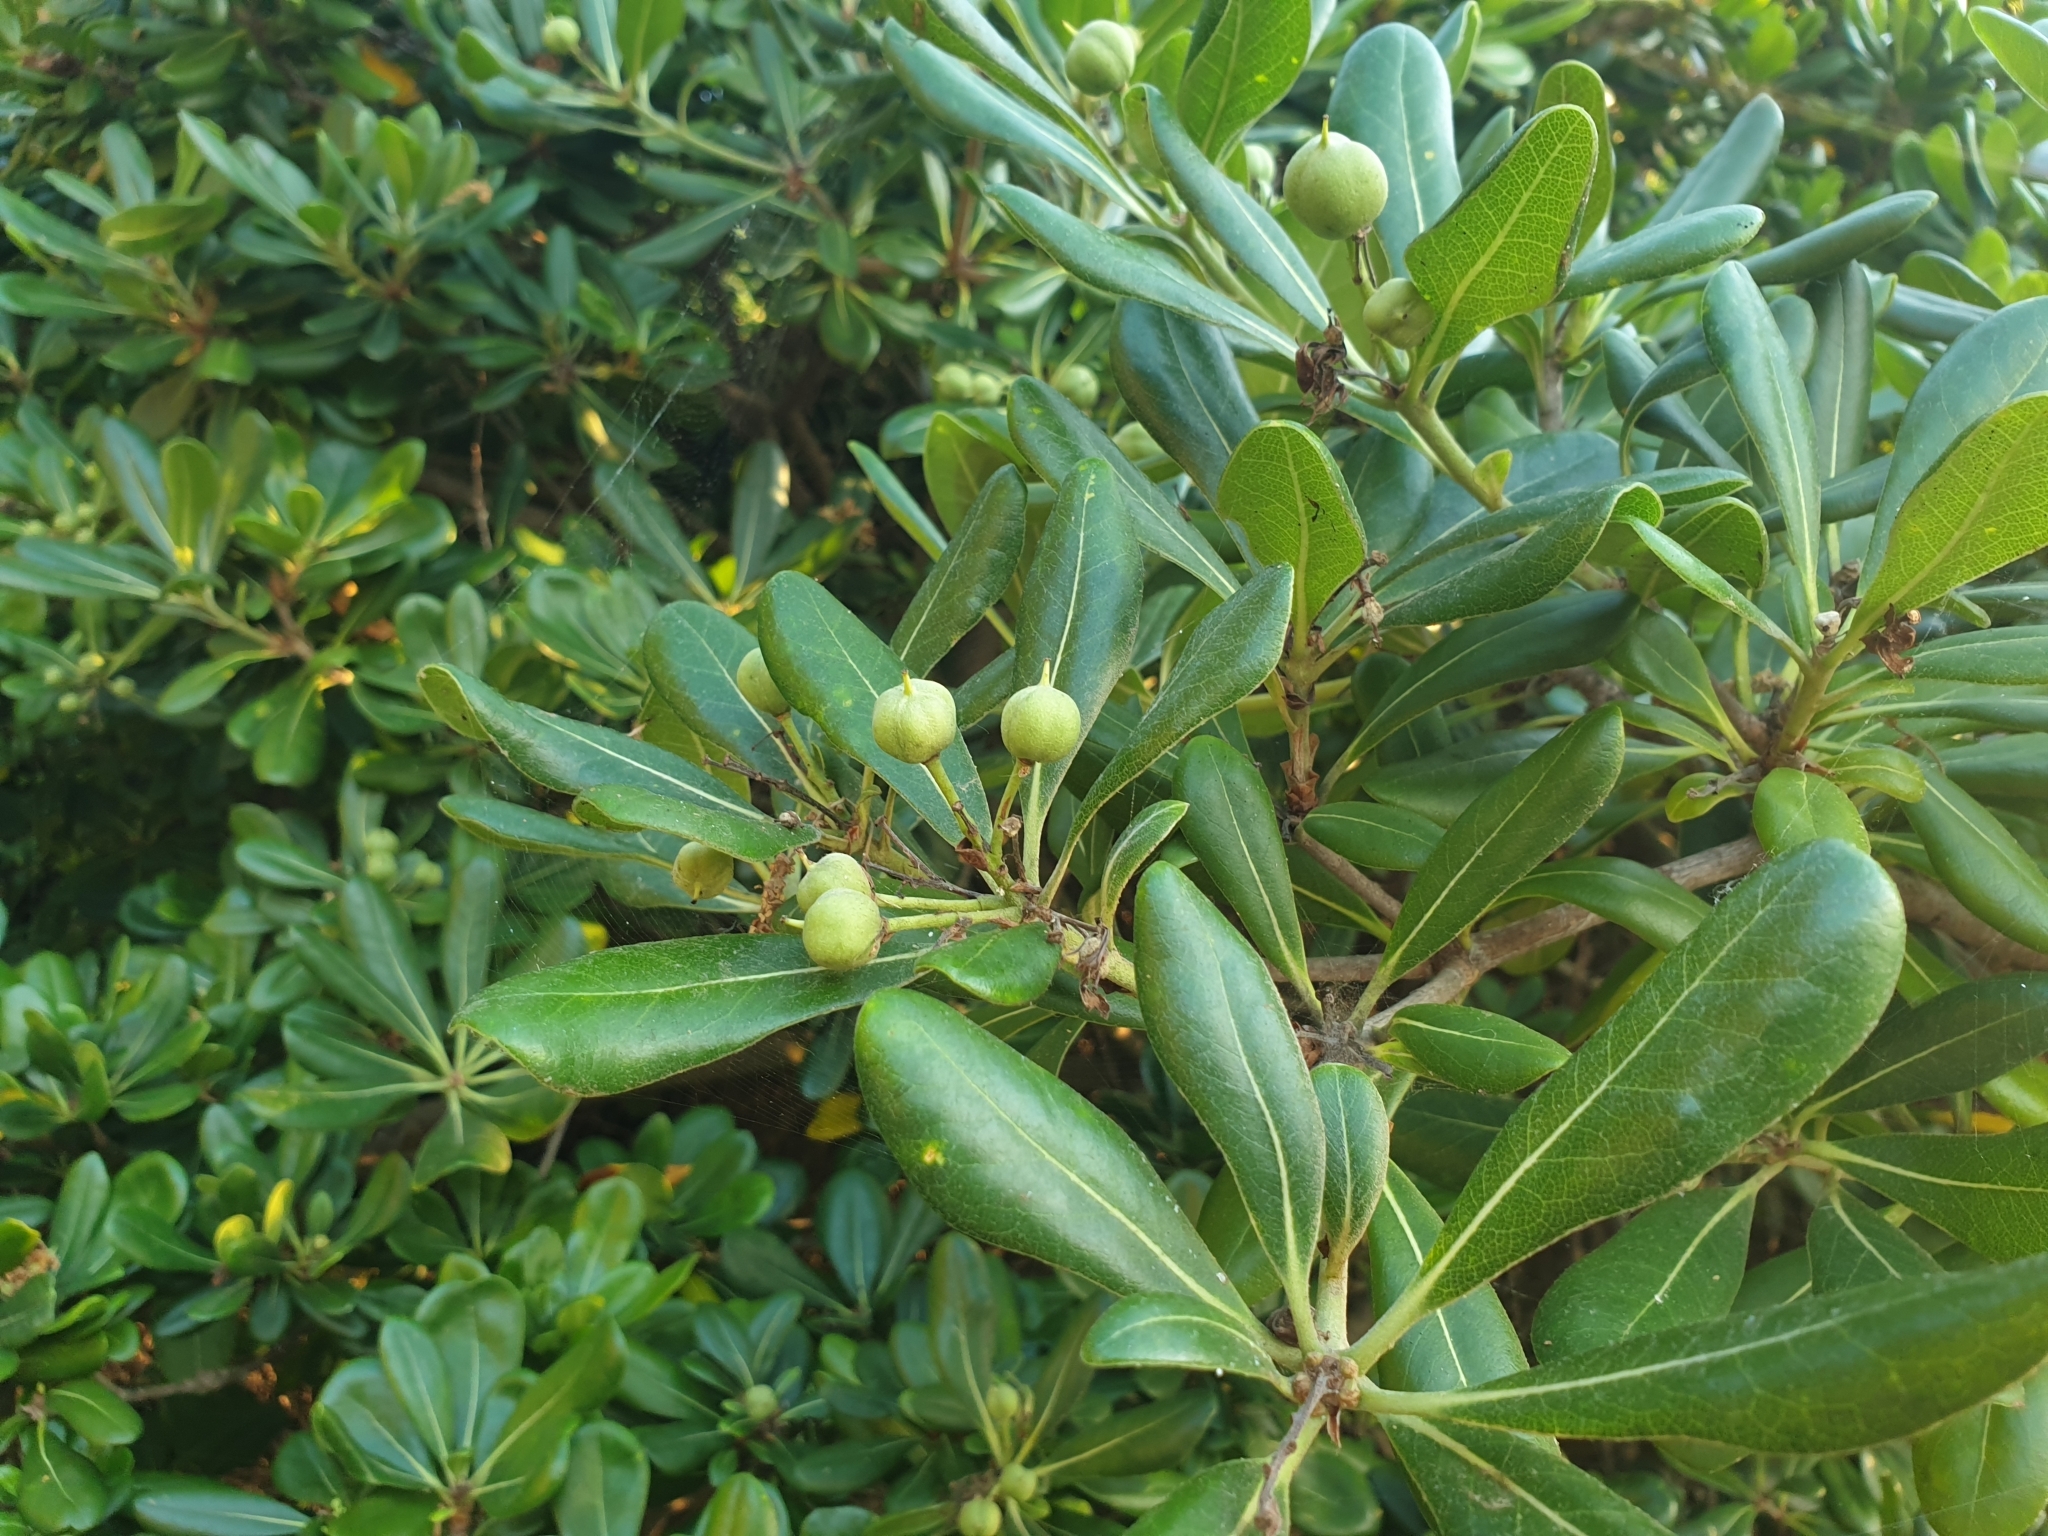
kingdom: Plantae
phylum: Tracheophyta
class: Magnoliopsida
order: Apiales
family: Pittosporaceae
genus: Pittosporum
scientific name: Pittosporum tobira
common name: Japanese cheesewood
